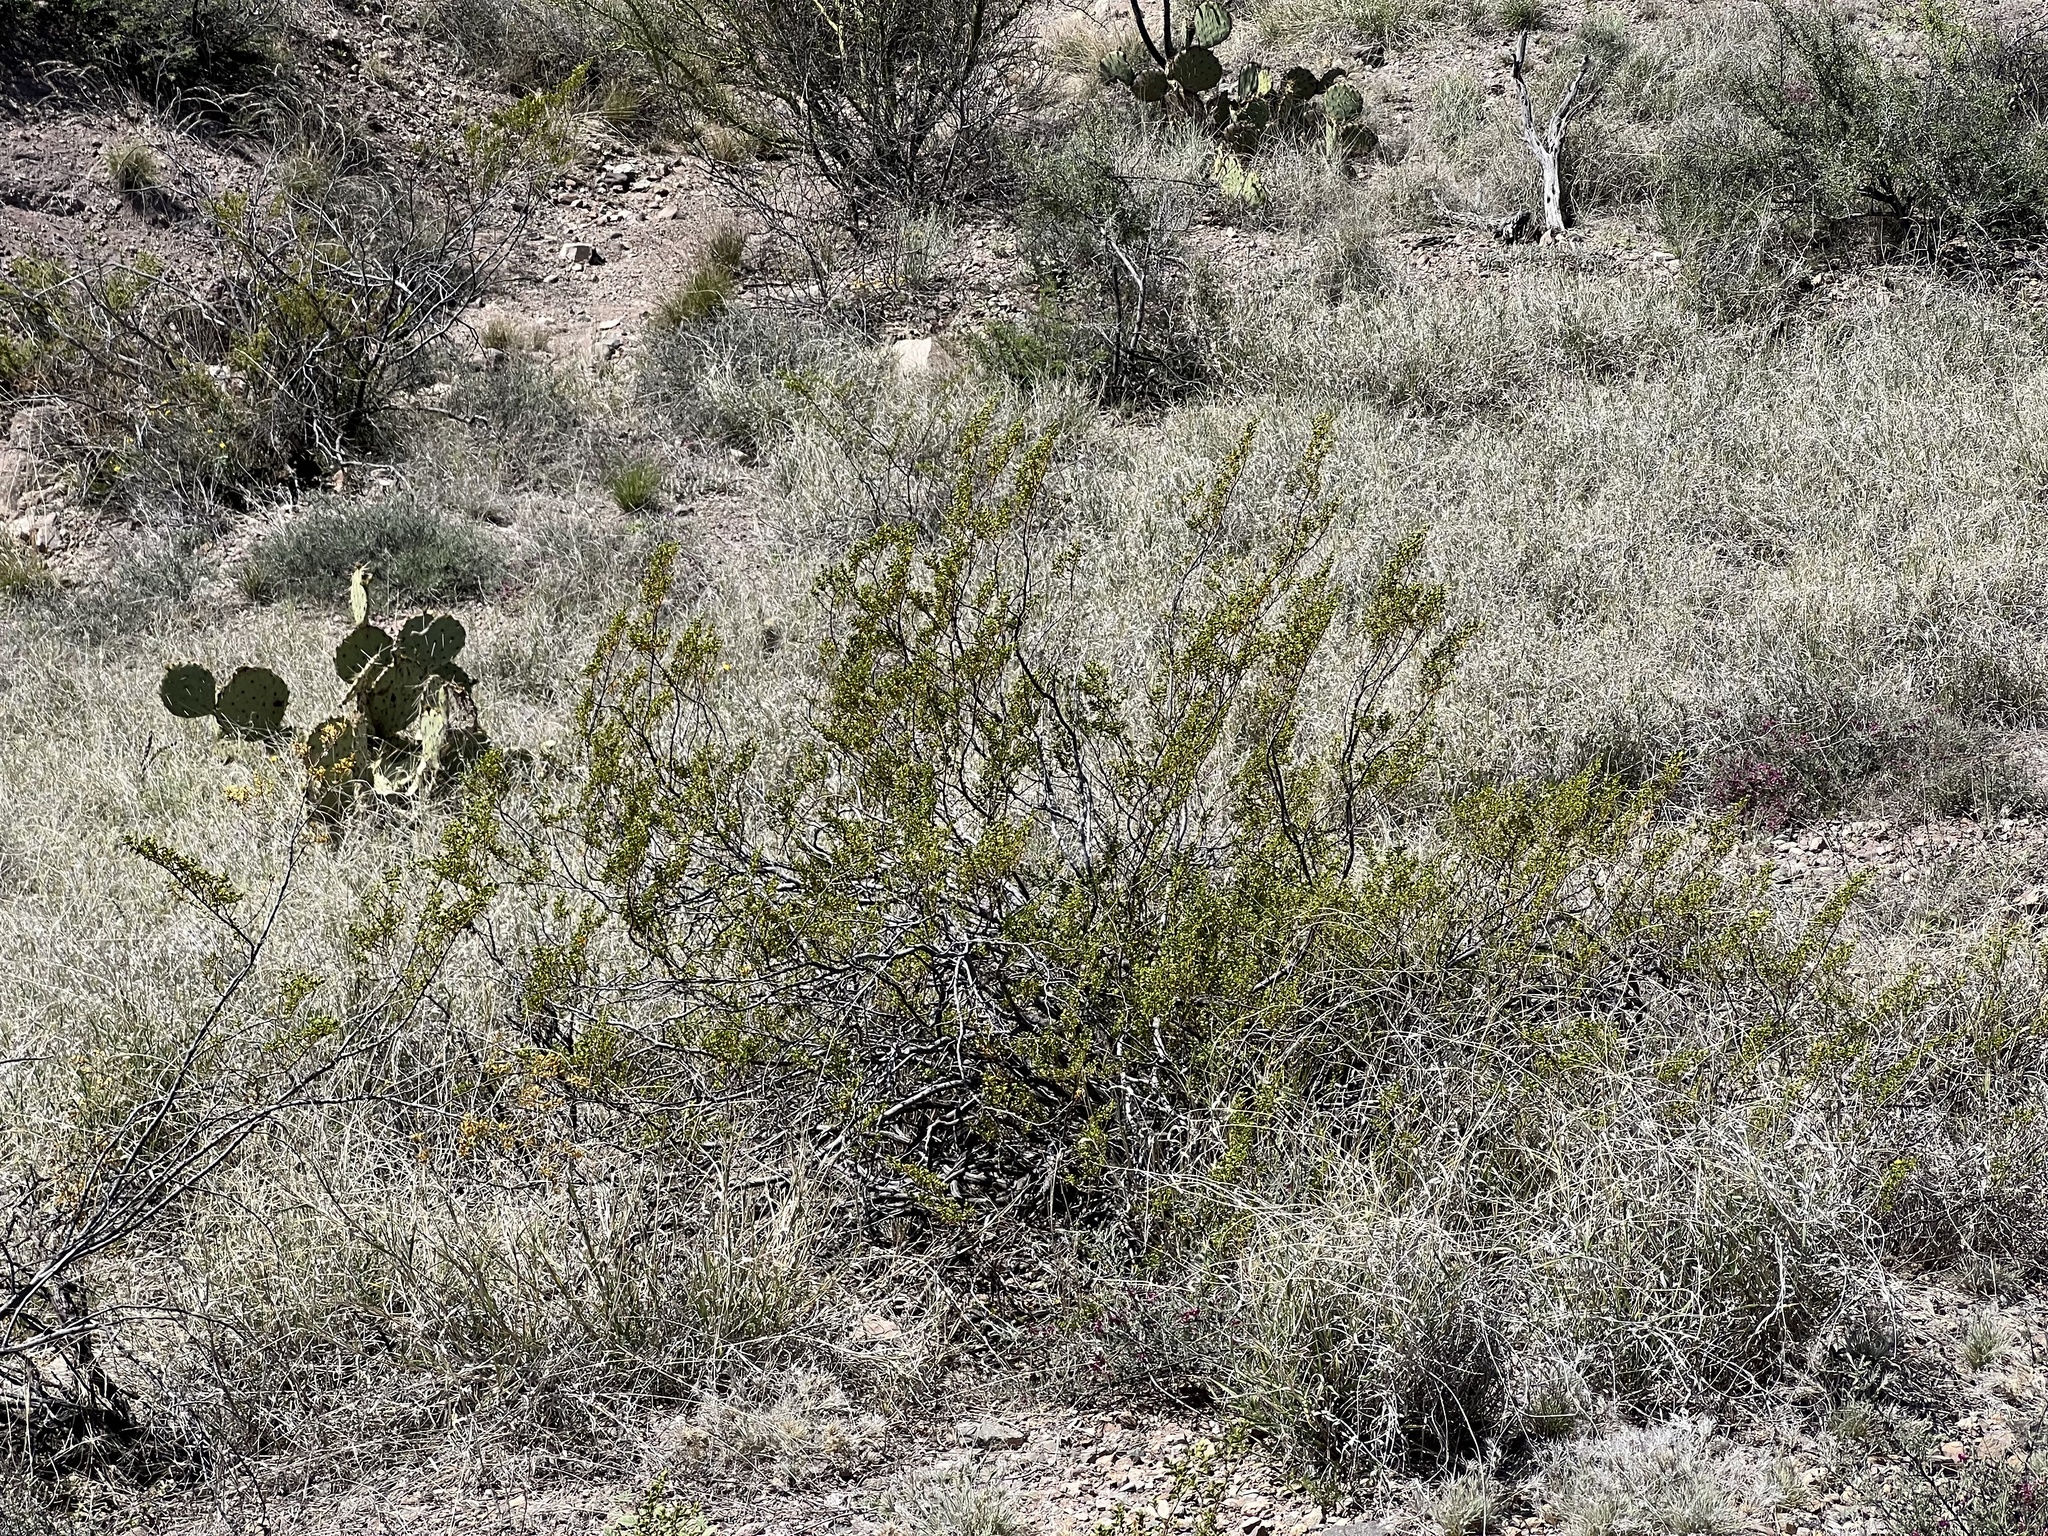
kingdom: Plantae
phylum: Tracheophyta
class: Magnoliopsida
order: Zygophyllales
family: Zygophyllaceae
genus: Larrea
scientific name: Larrea tridentata
